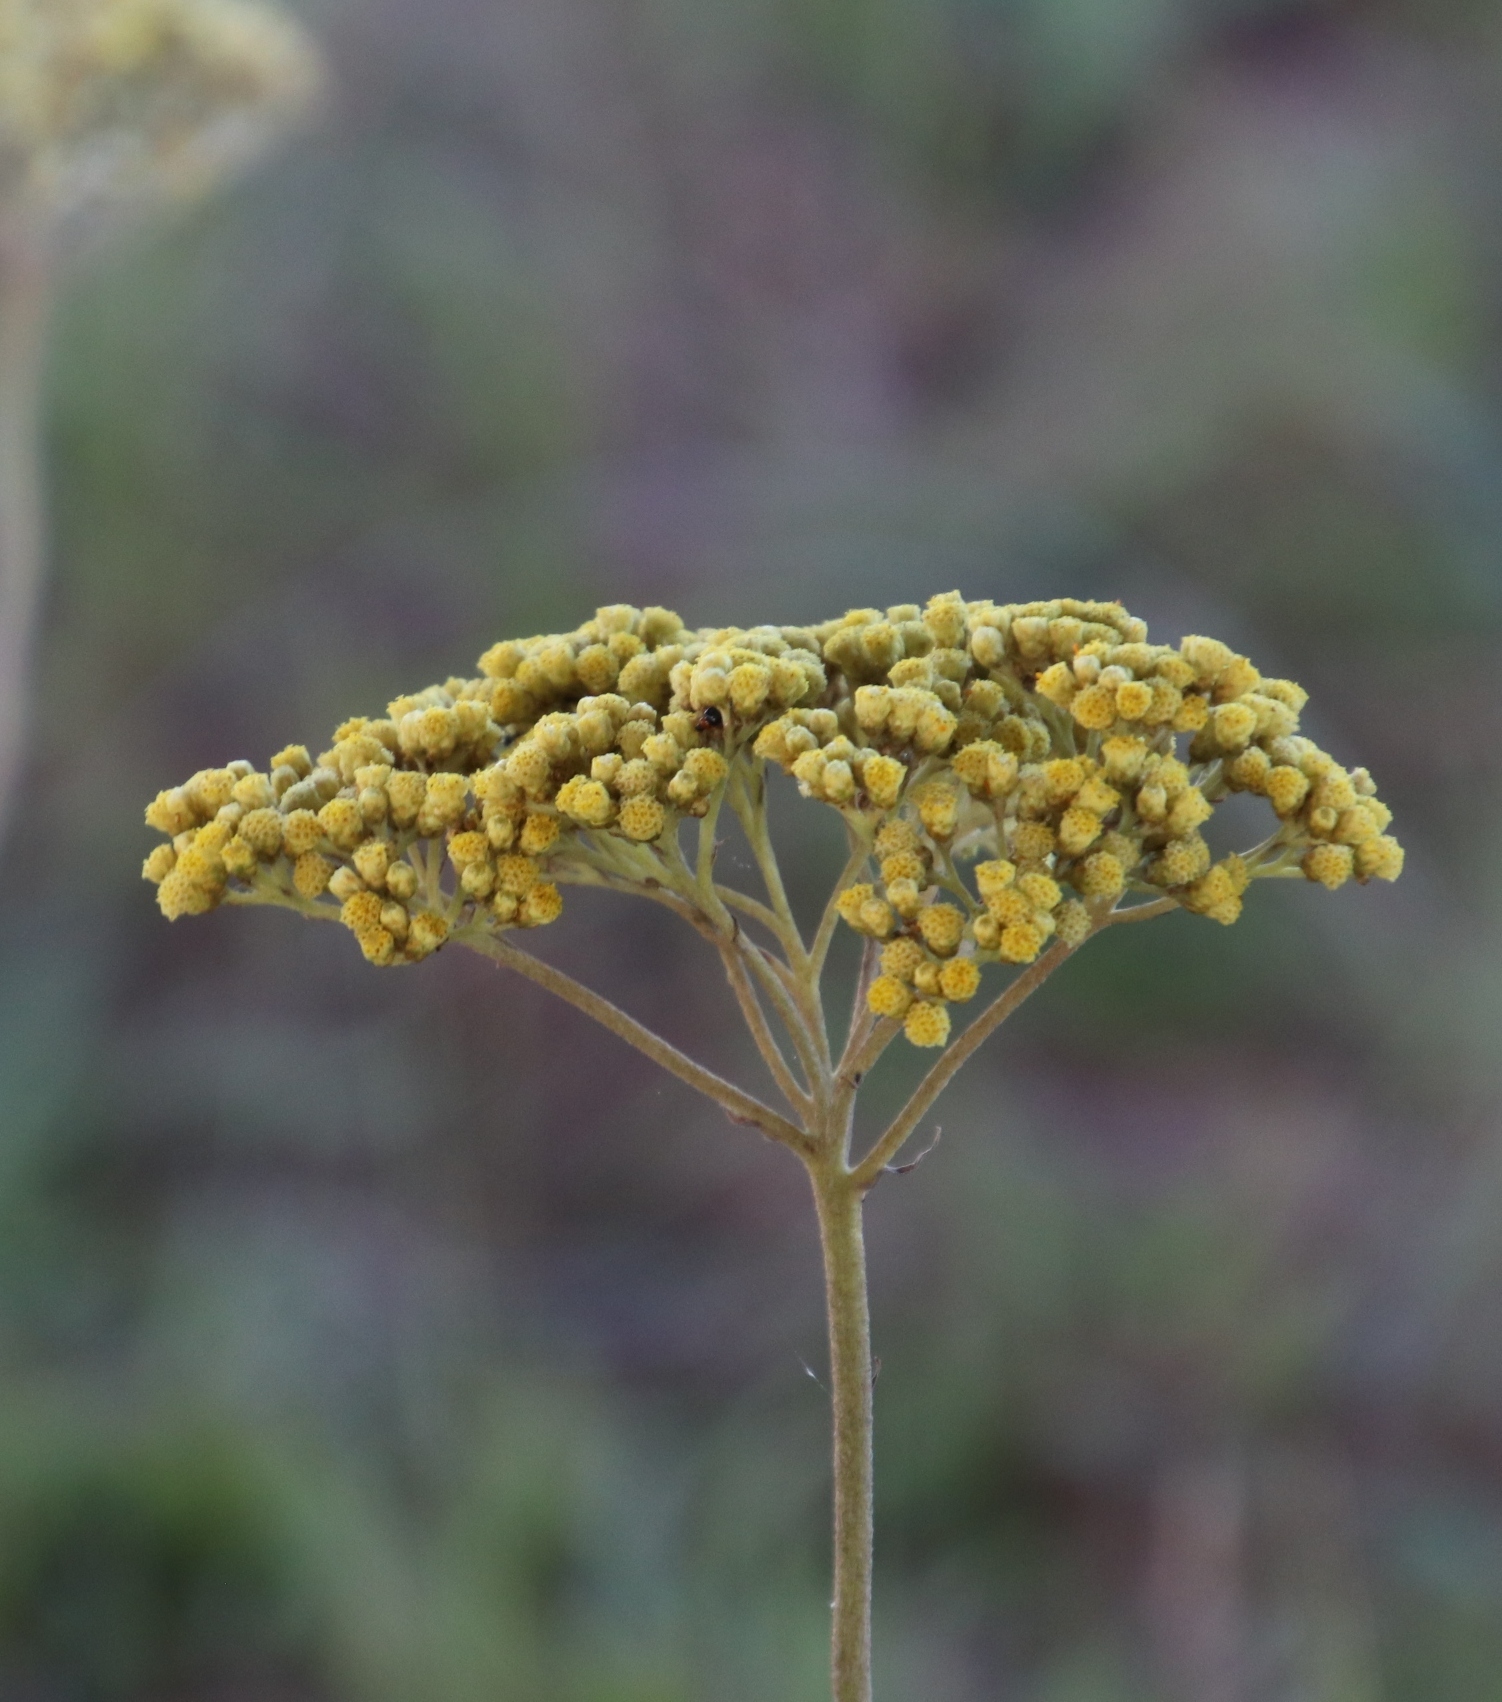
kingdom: Plantae
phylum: Tracheophyta
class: Magnoliopsida
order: Asterales
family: Asteraceae
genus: Helichrysum
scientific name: Helichrysum nudifolium
